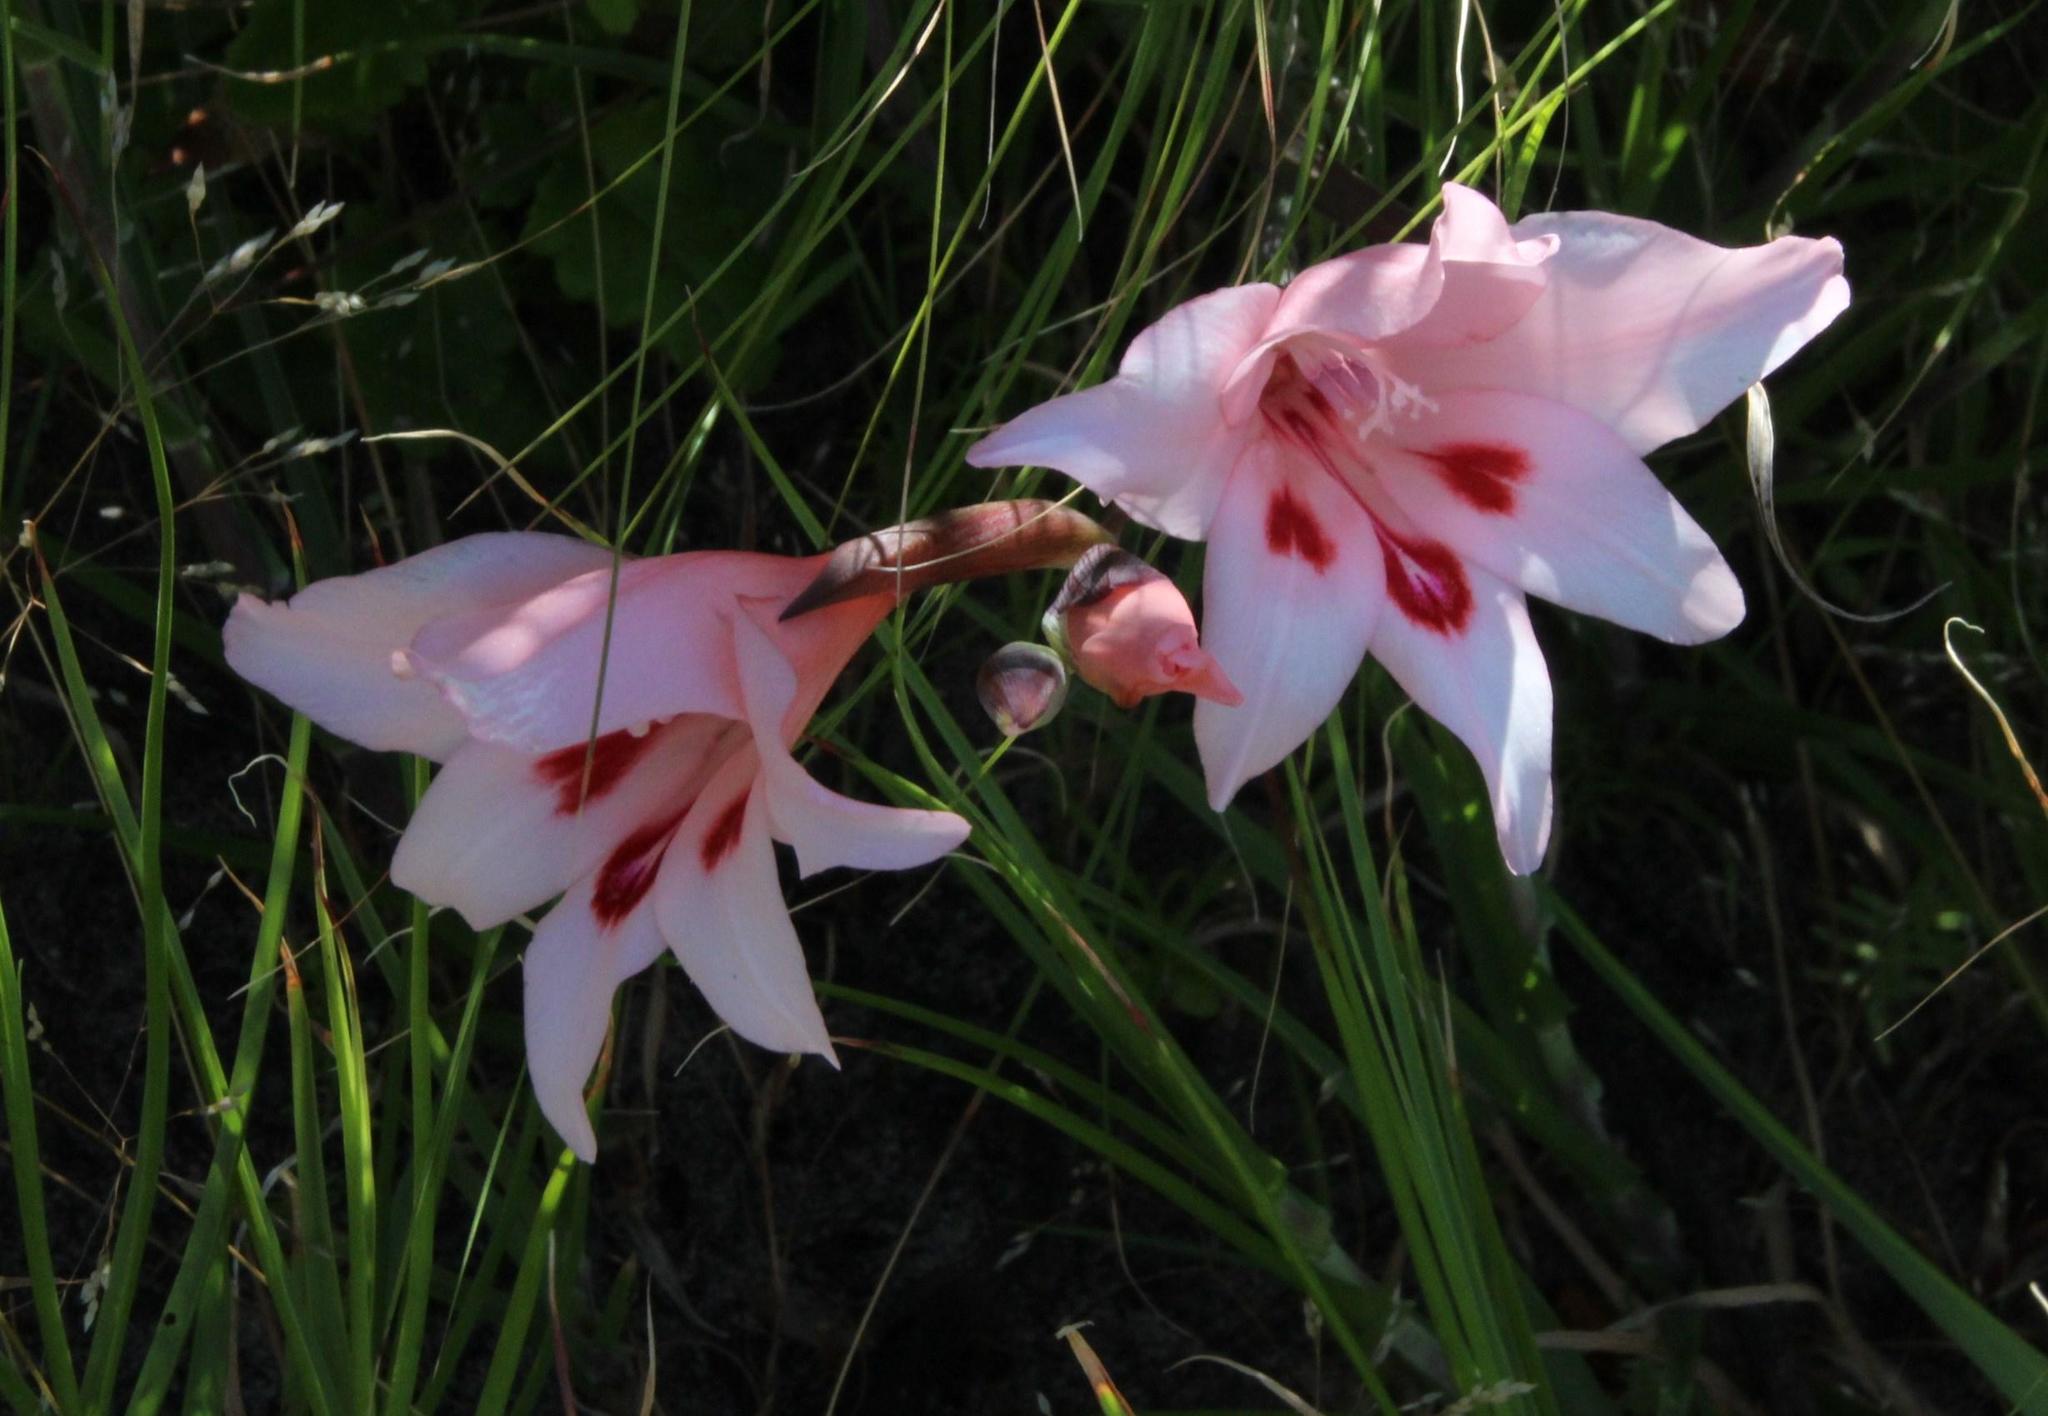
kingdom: Plantae
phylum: Tracheophyta
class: Liliopsida
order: Asparagales
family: Iridaceae
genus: Gladiolus
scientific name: Gladiolus carneus
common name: Painted-lady
